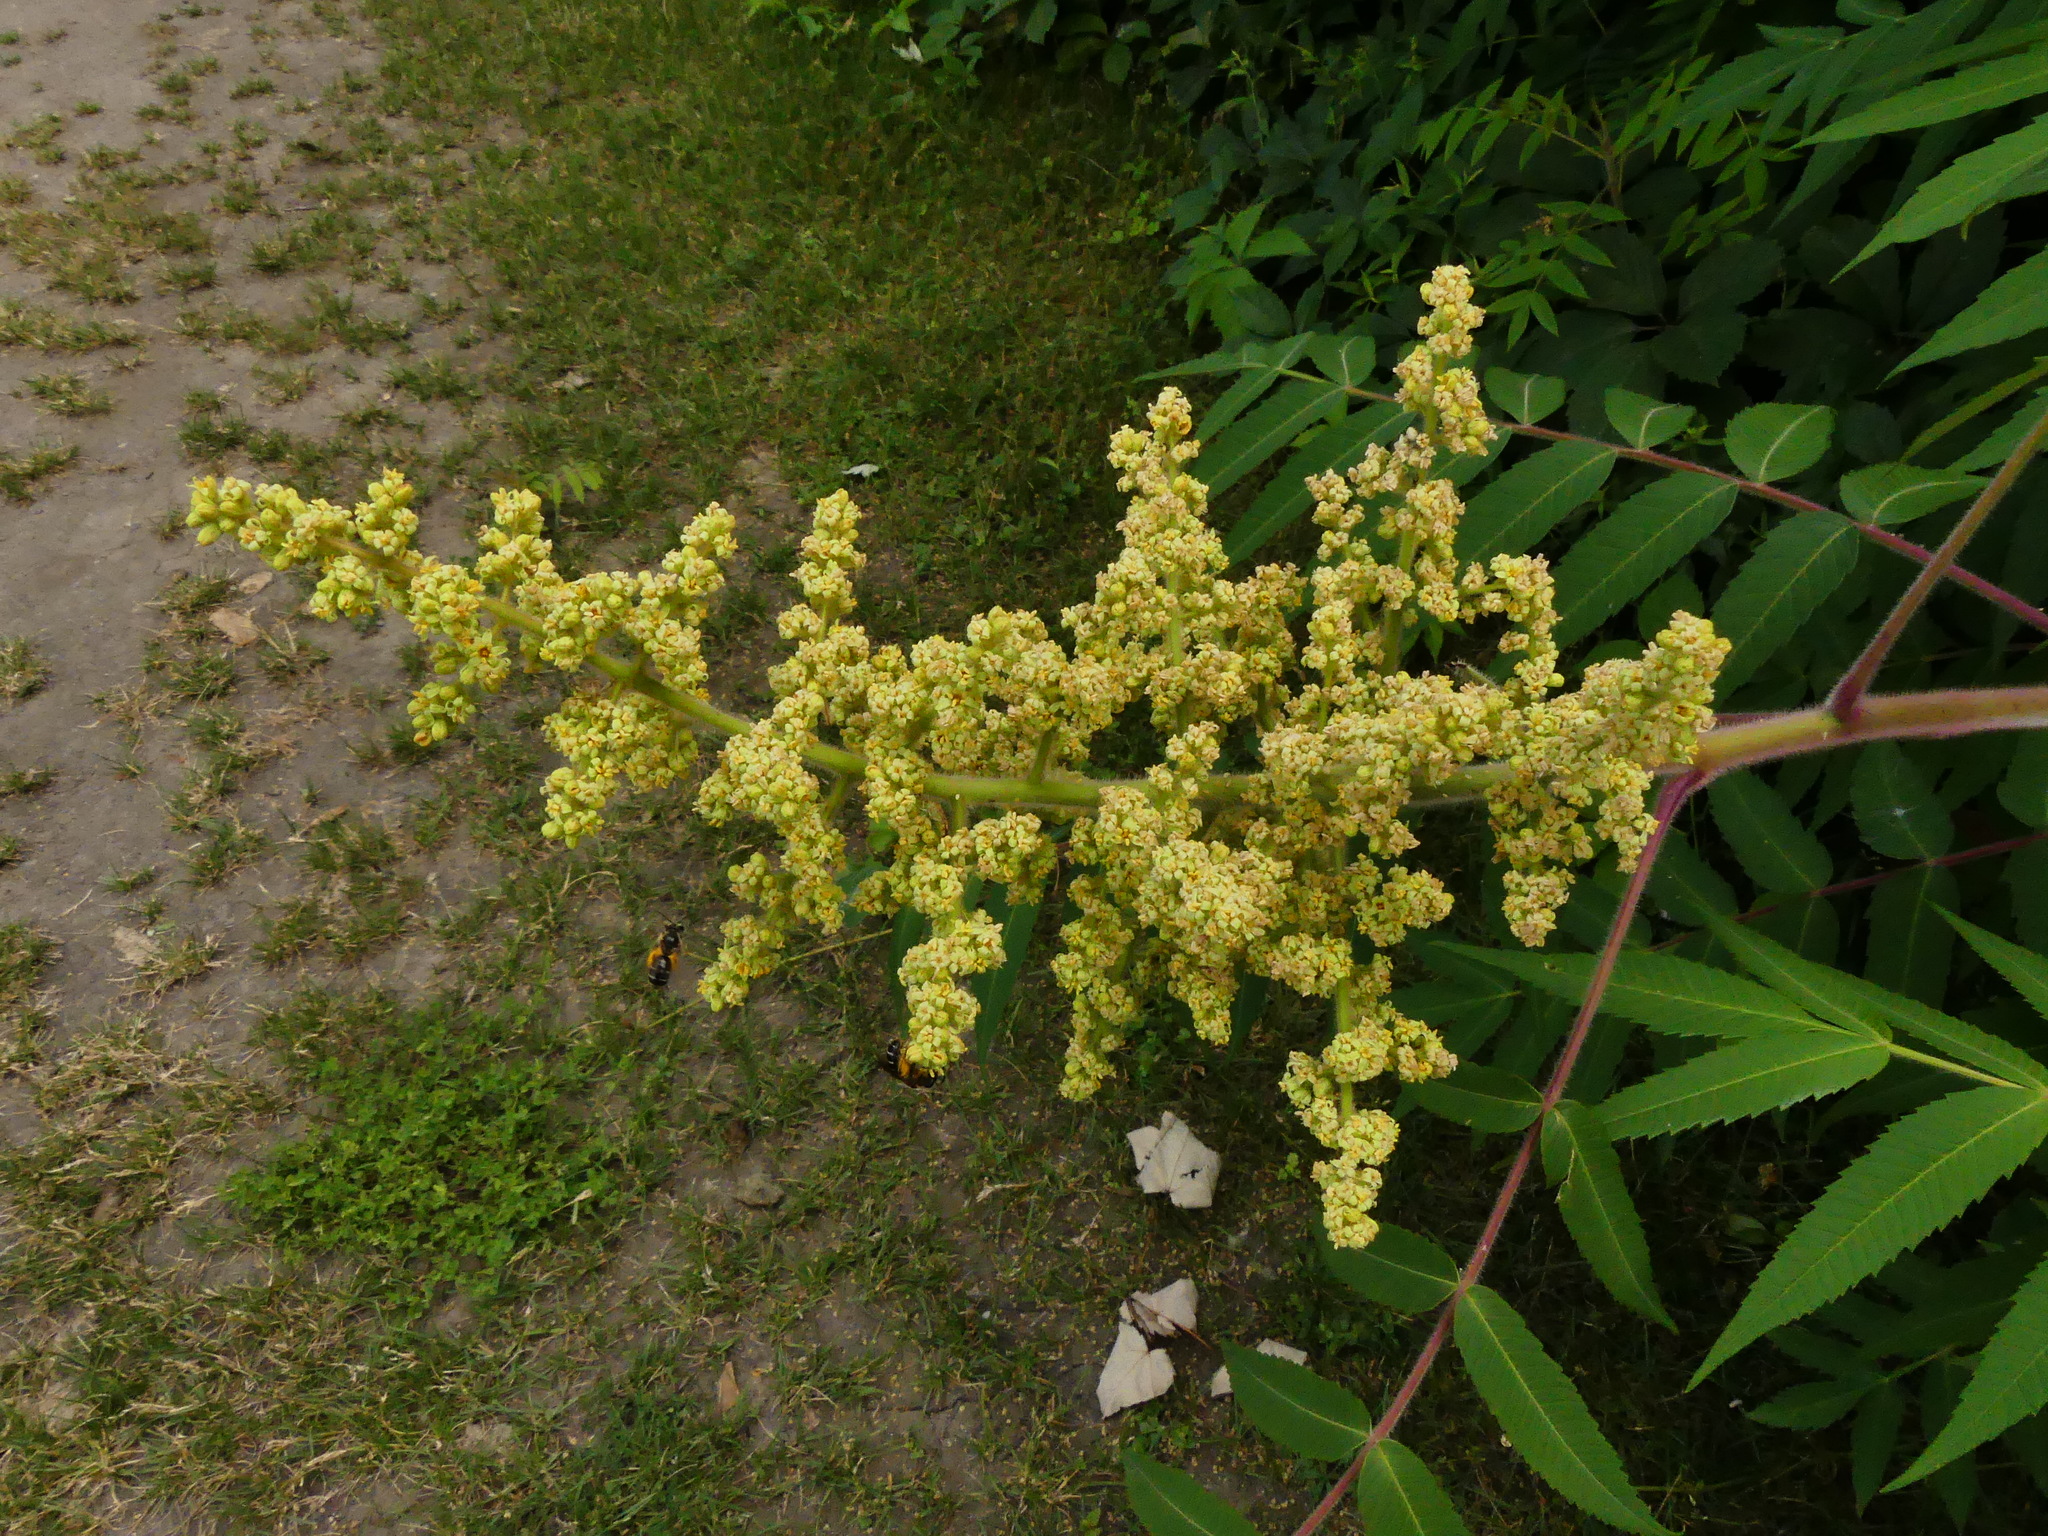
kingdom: Plantae
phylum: Tracheophyta
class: Magnoliopsida
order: Sapindales
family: Anacardiaceae
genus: Rhus
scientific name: Rhus typhina
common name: Staghorn sumac
